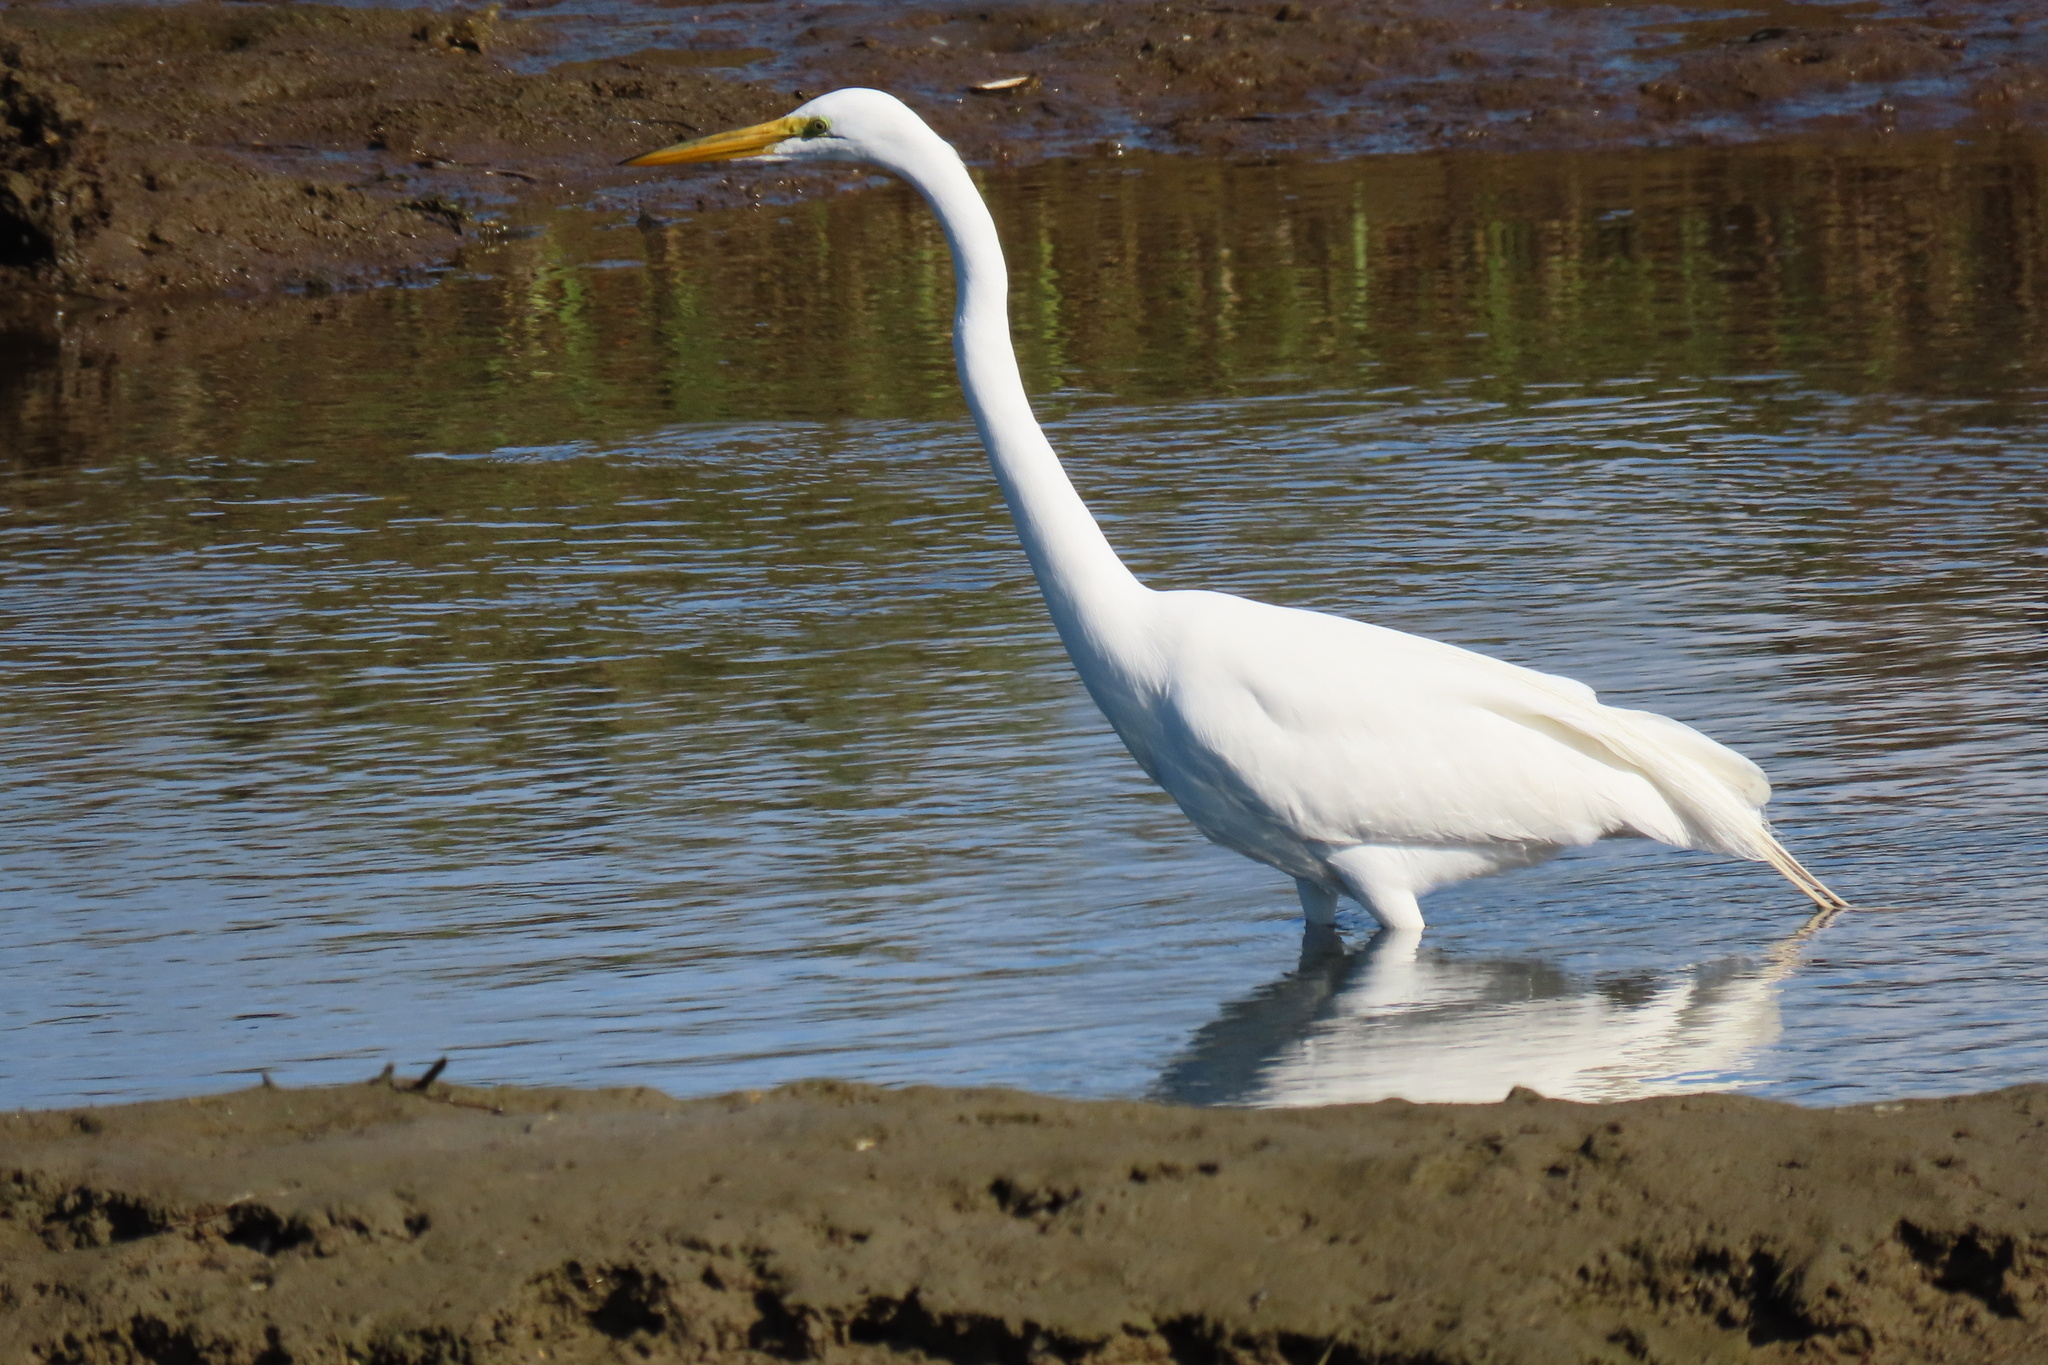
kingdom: Animalia
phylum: Chordata
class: Aves
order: Pelecaniformes
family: Ardeidae
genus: Ardea
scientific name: Ardea alba
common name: Great egret
